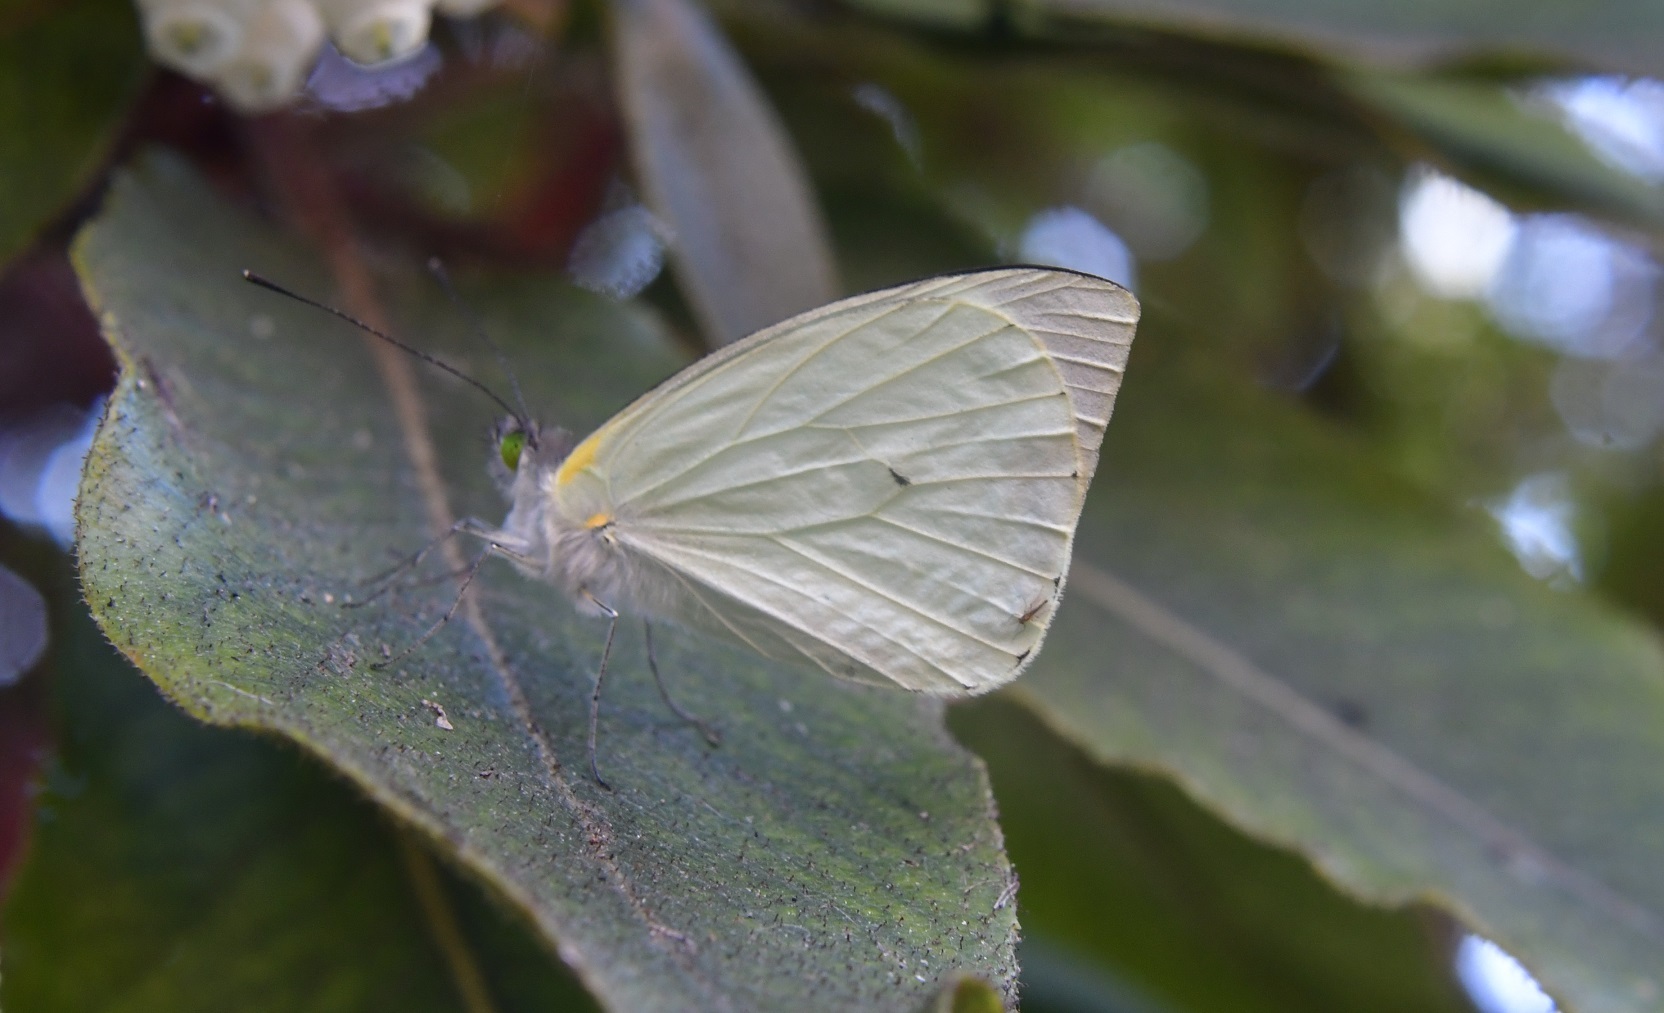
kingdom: Animalia
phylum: Arthropoda
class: Insecta
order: Lepidoptera
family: Pieridae
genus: Leptophobia
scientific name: Leptophobia aripa
